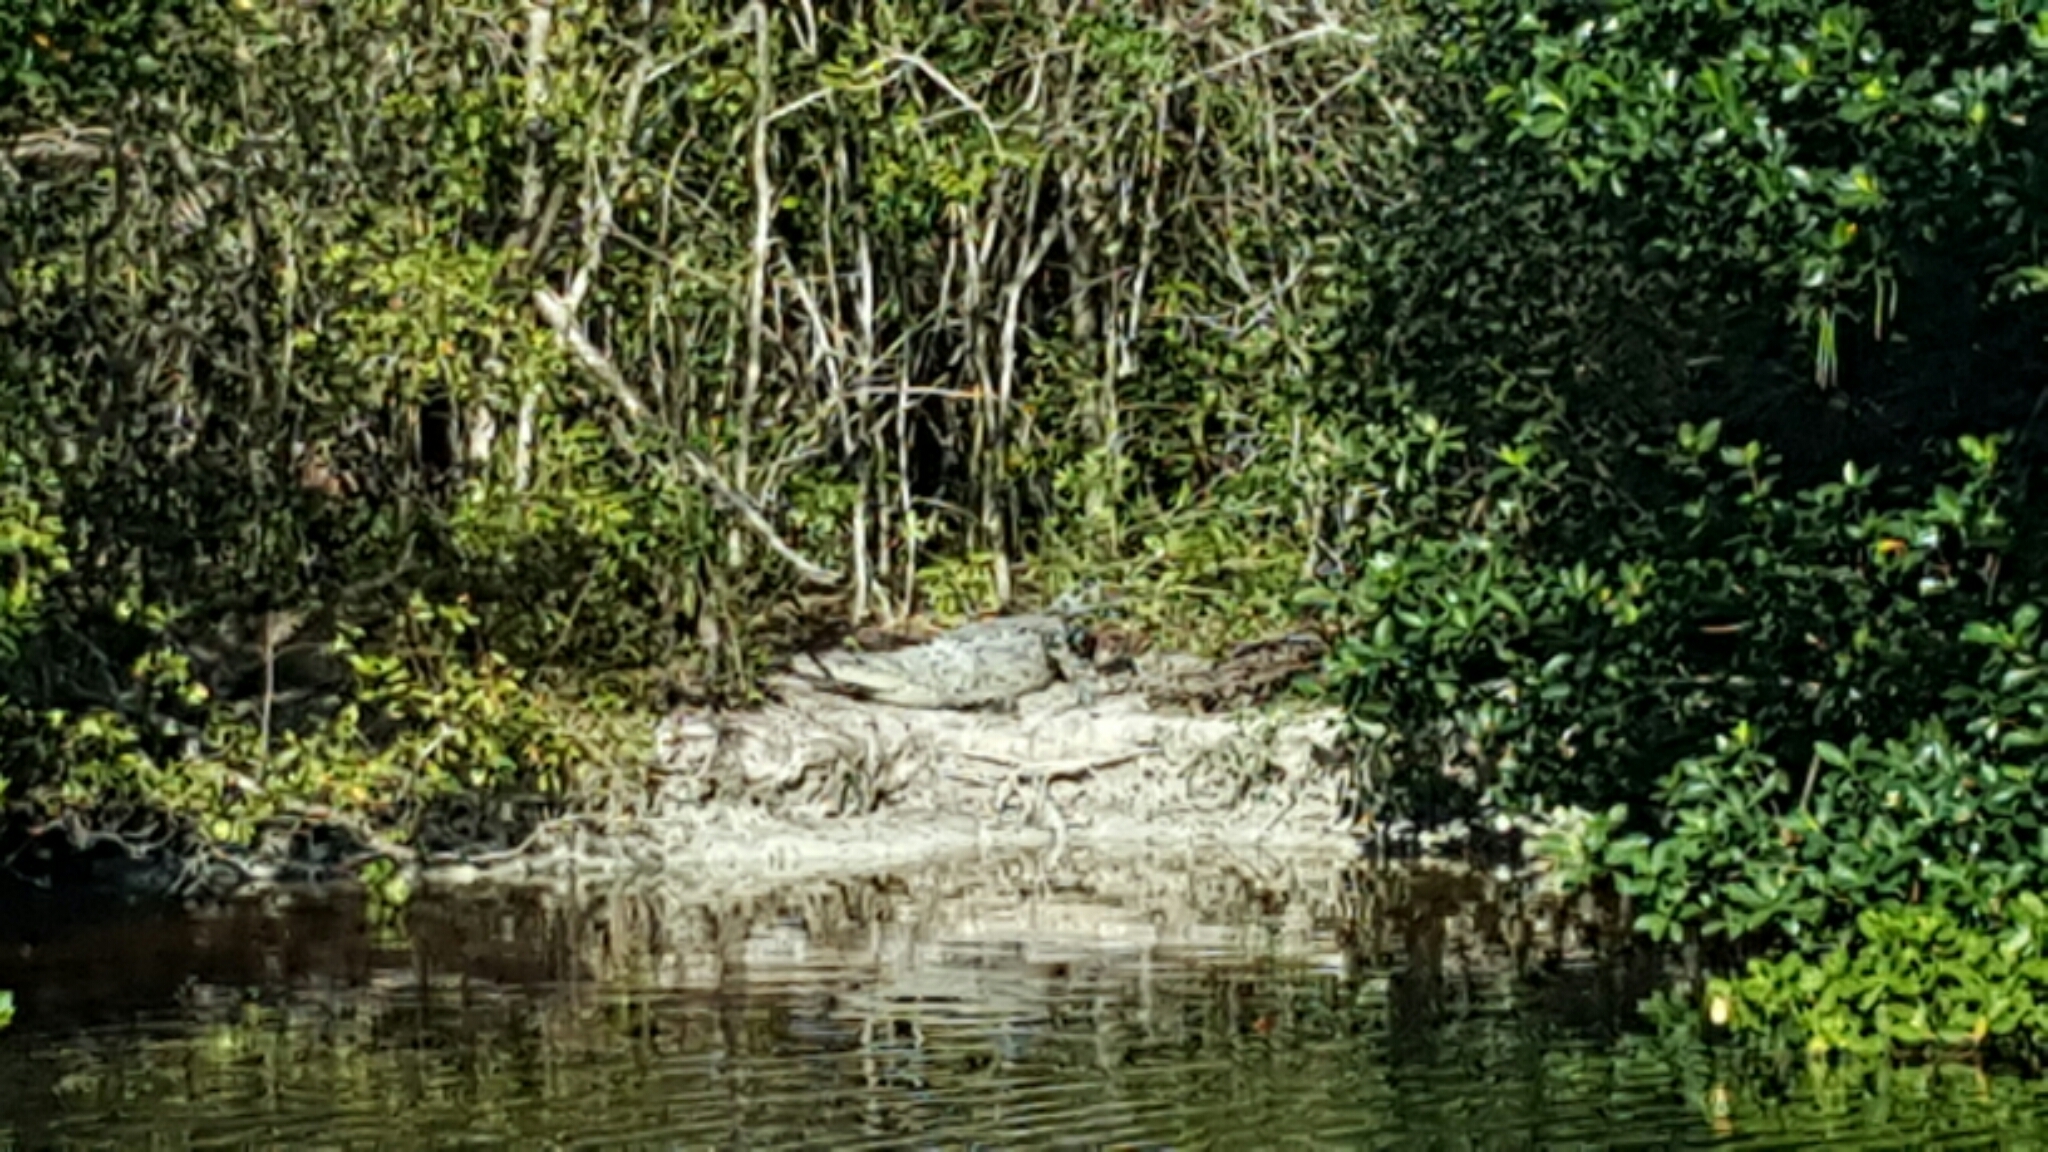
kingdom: Animalia
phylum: Chordata
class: Crocodylia
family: Crocodylidae
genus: Crocodylus
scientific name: Crocodylus acutus
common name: American crocodile
